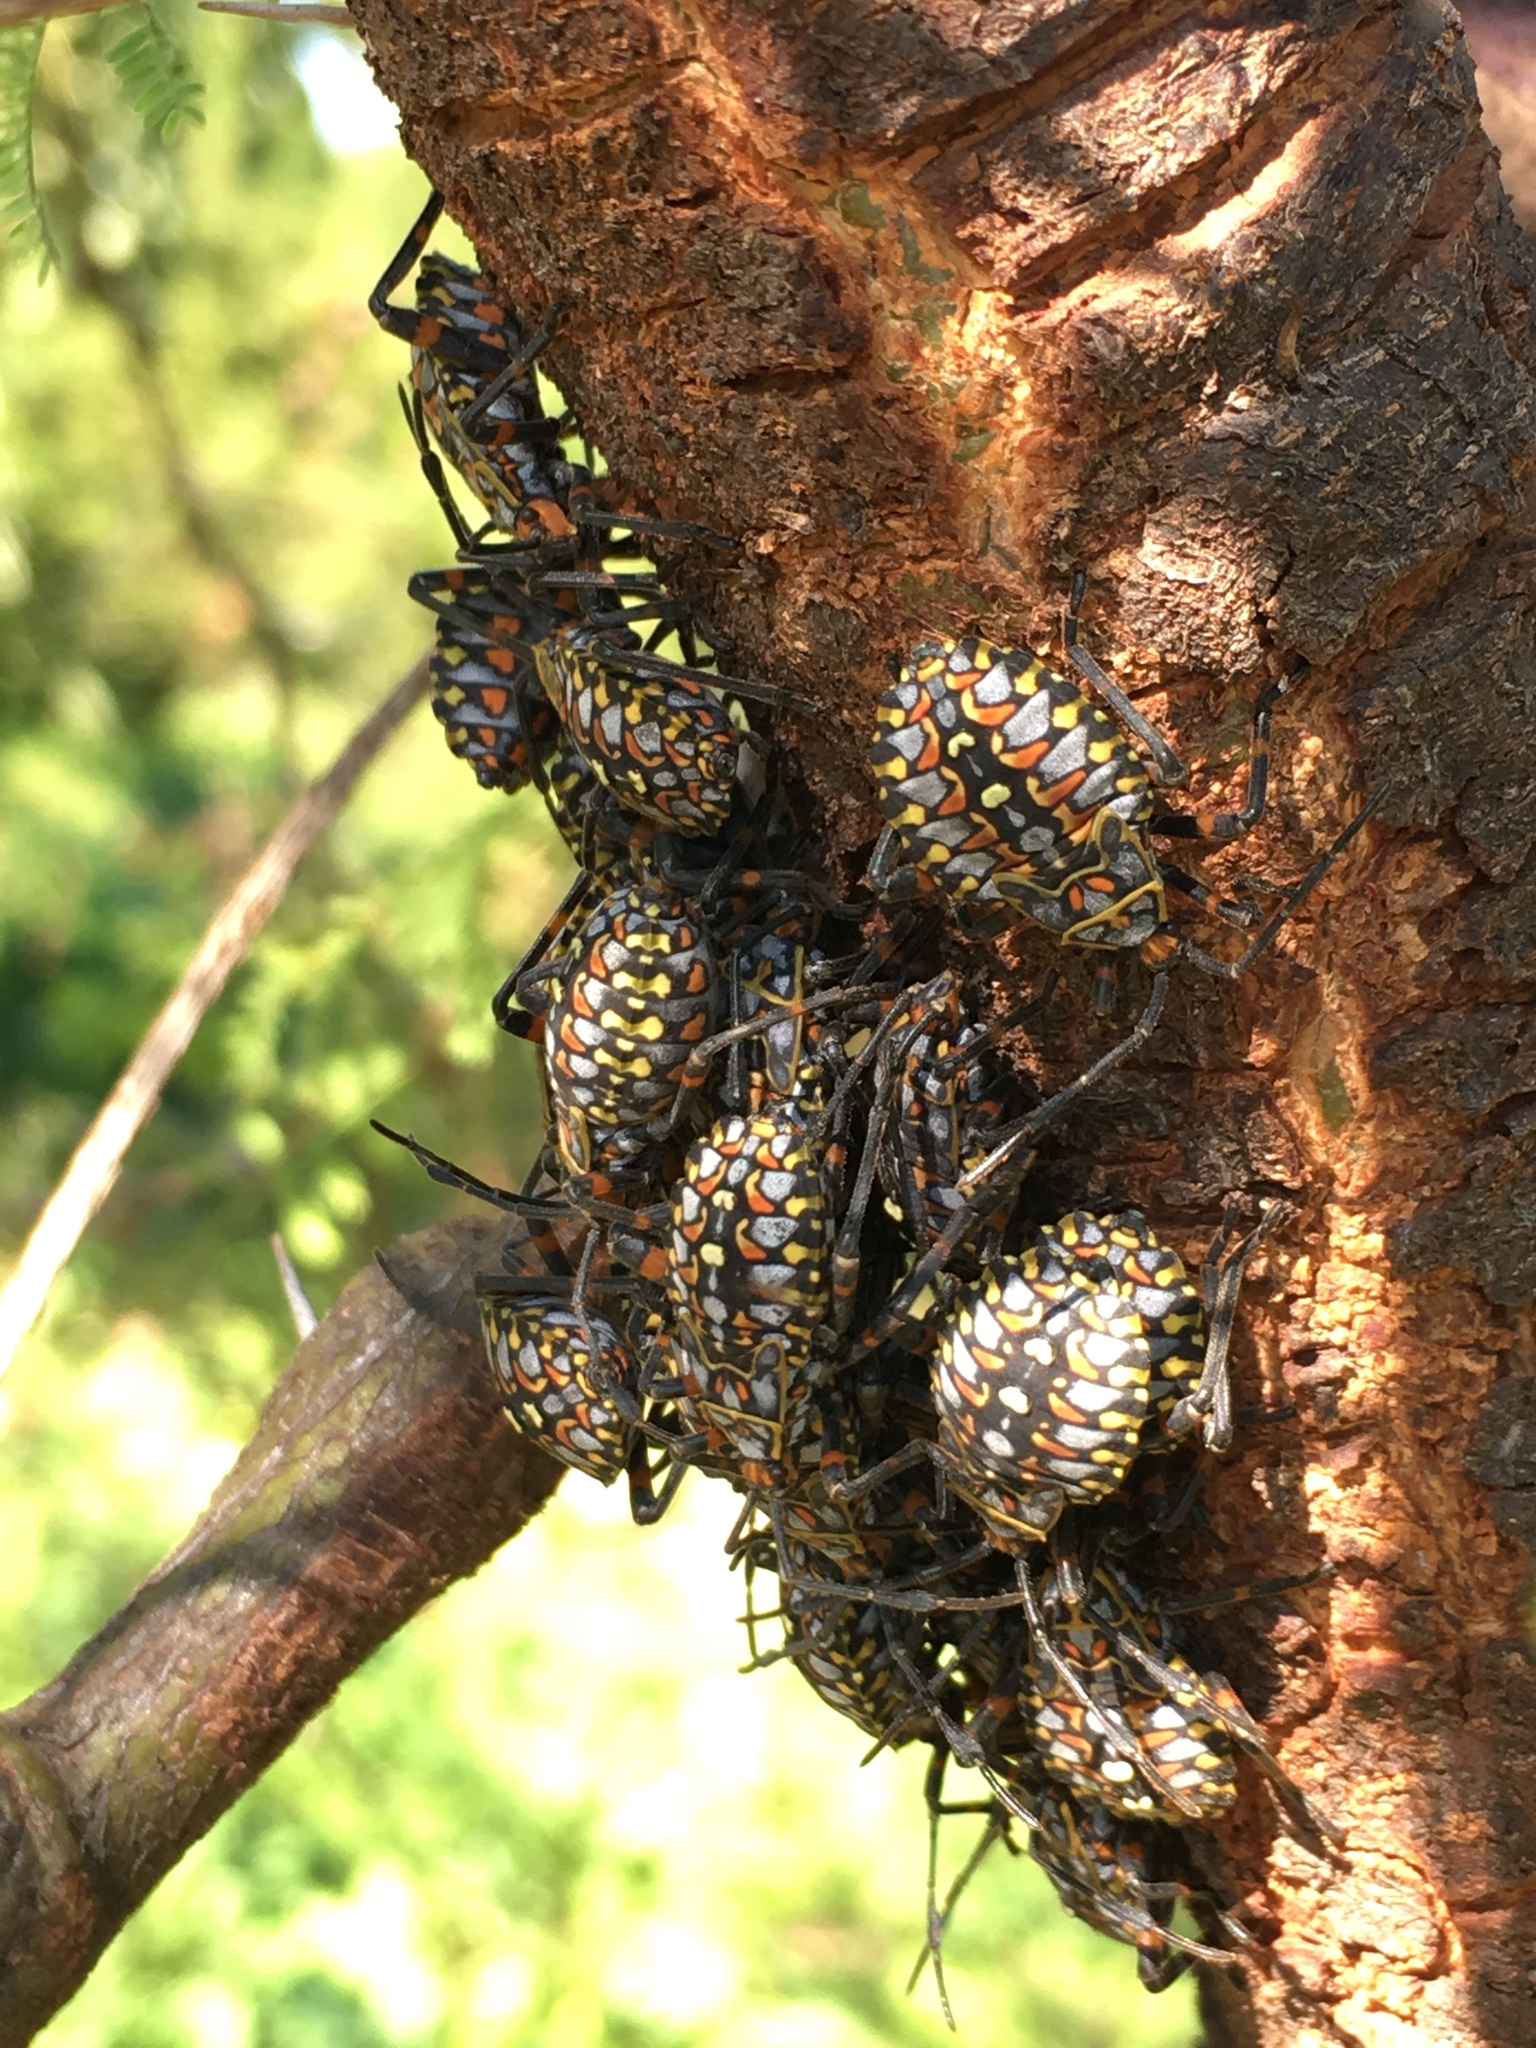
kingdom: Animalia
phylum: Arthropoda
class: Insecta
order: Hemiptera
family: Coreidae
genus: Pachylis
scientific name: Pachylis argentinus
